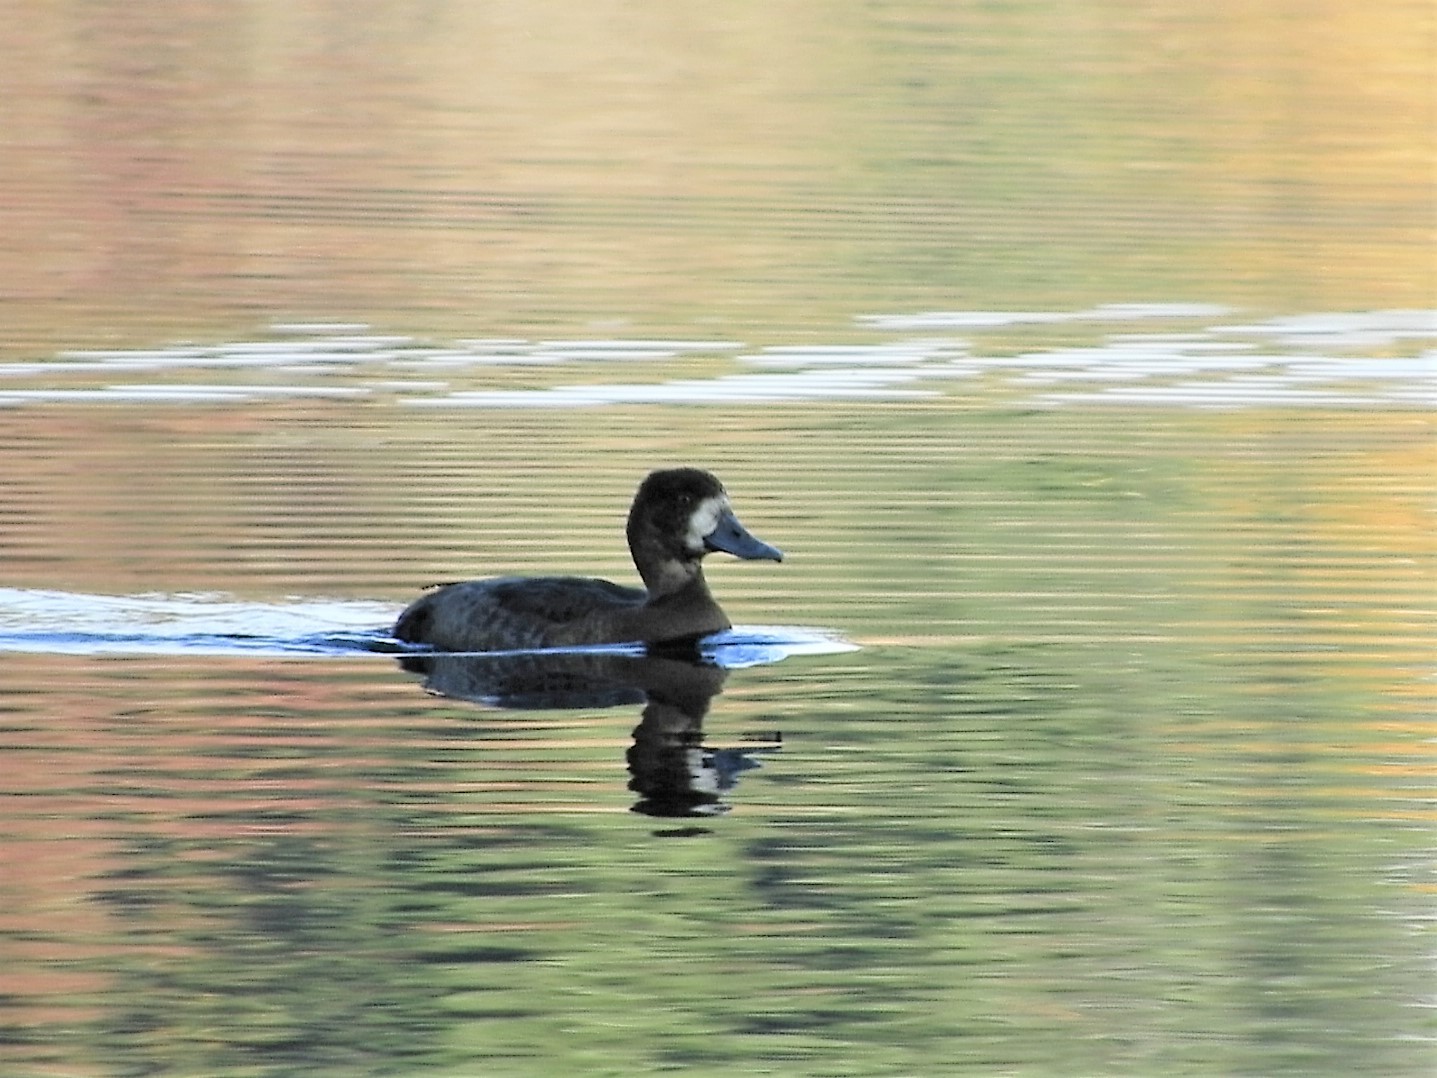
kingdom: Animalia
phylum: Chordata
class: Aves
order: Anseriformes
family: Anatidae
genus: Aythya
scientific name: Aythya marila
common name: Greater scaup
